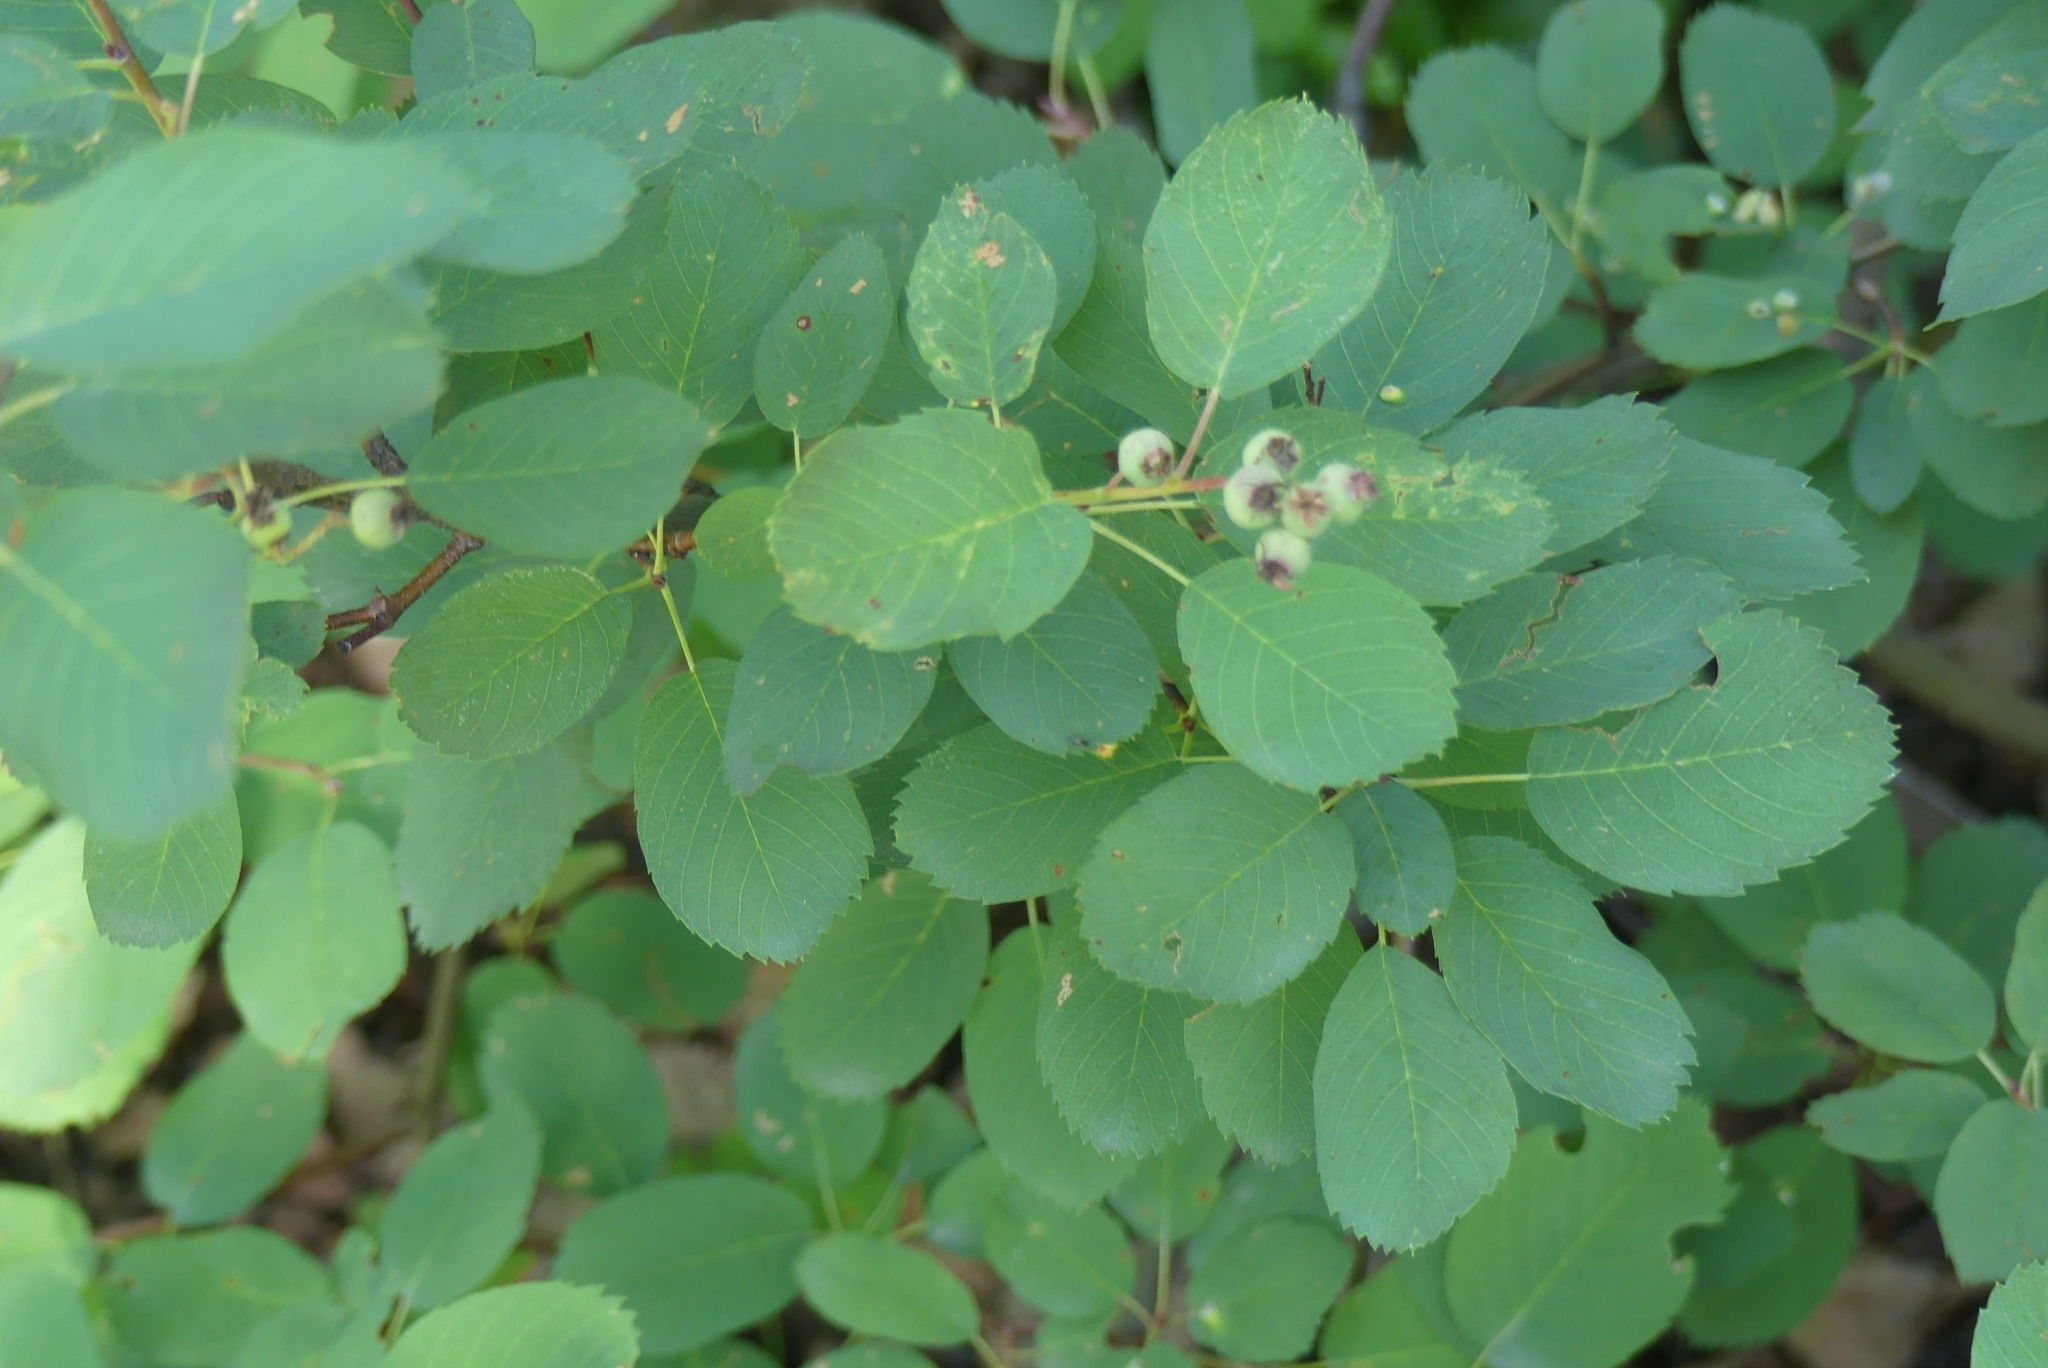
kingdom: Plantae
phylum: Tracheophyta
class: Magnoliopsida
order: Rosales
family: Rosaceae
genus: Amelanchier
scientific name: Amelanchier alnifolia
